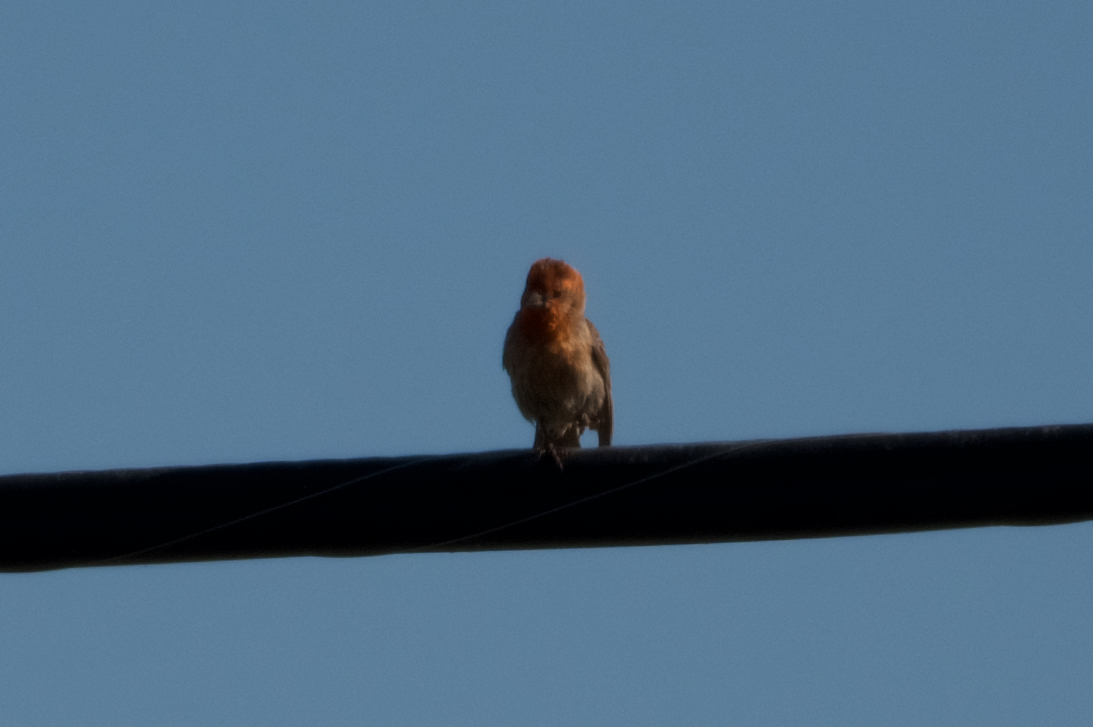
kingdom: Animalia
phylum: Chordata
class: Aves
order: Passeriformes
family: Fringillidae
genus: Haemorhous
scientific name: Haemorhous mexicanus
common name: House finch
